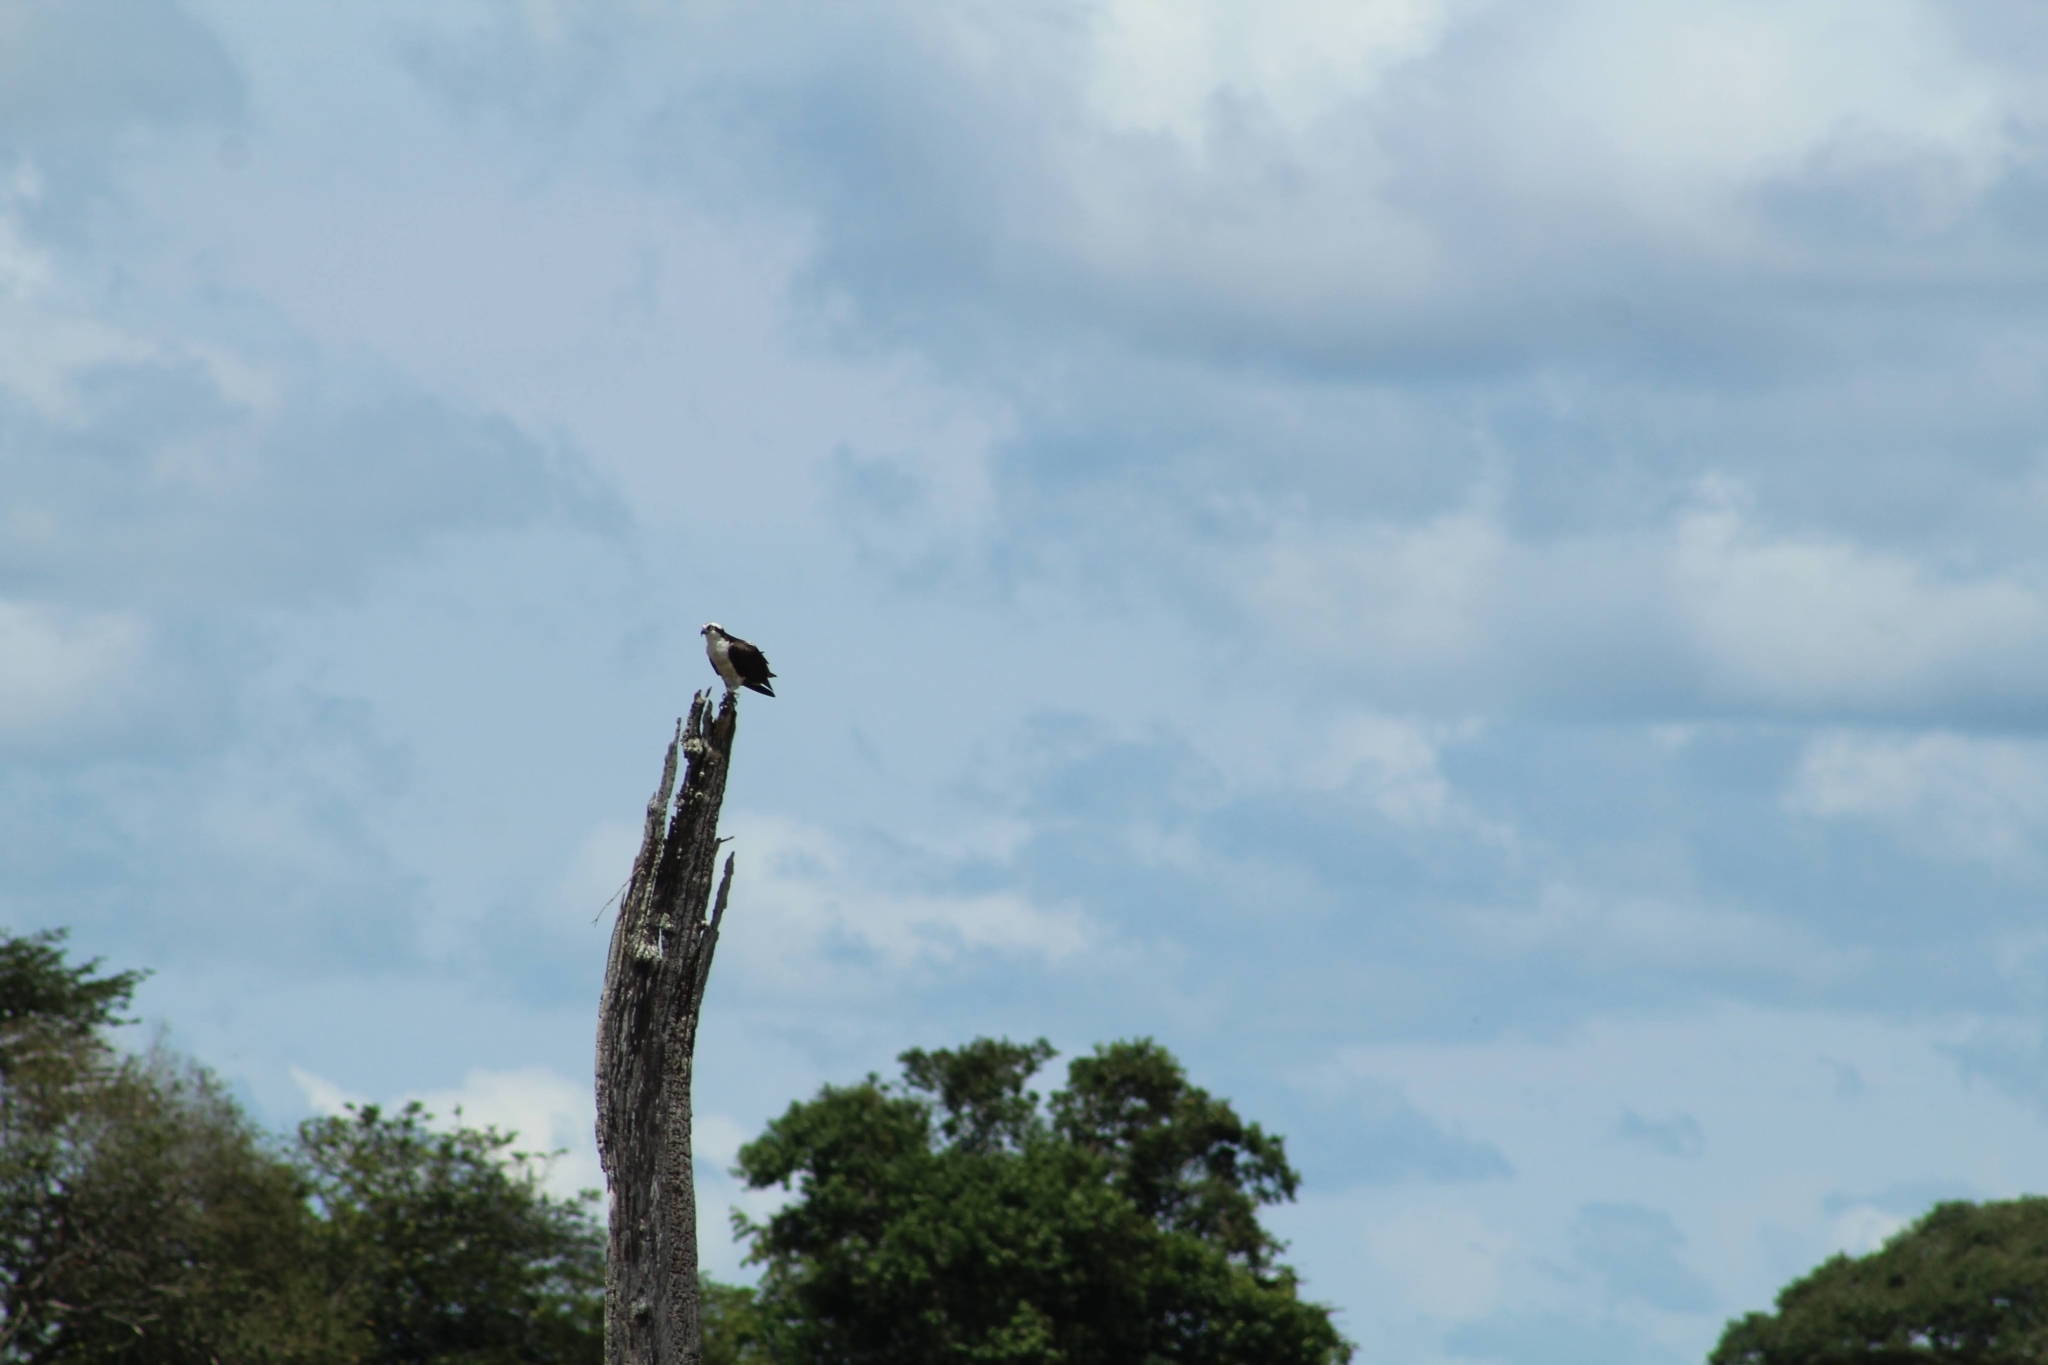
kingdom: Animalia
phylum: Chordata
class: Aves
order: Accipitriformes
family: Pandionidae
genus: Pandion
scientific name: Pandion haliaetus
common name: Osprey
